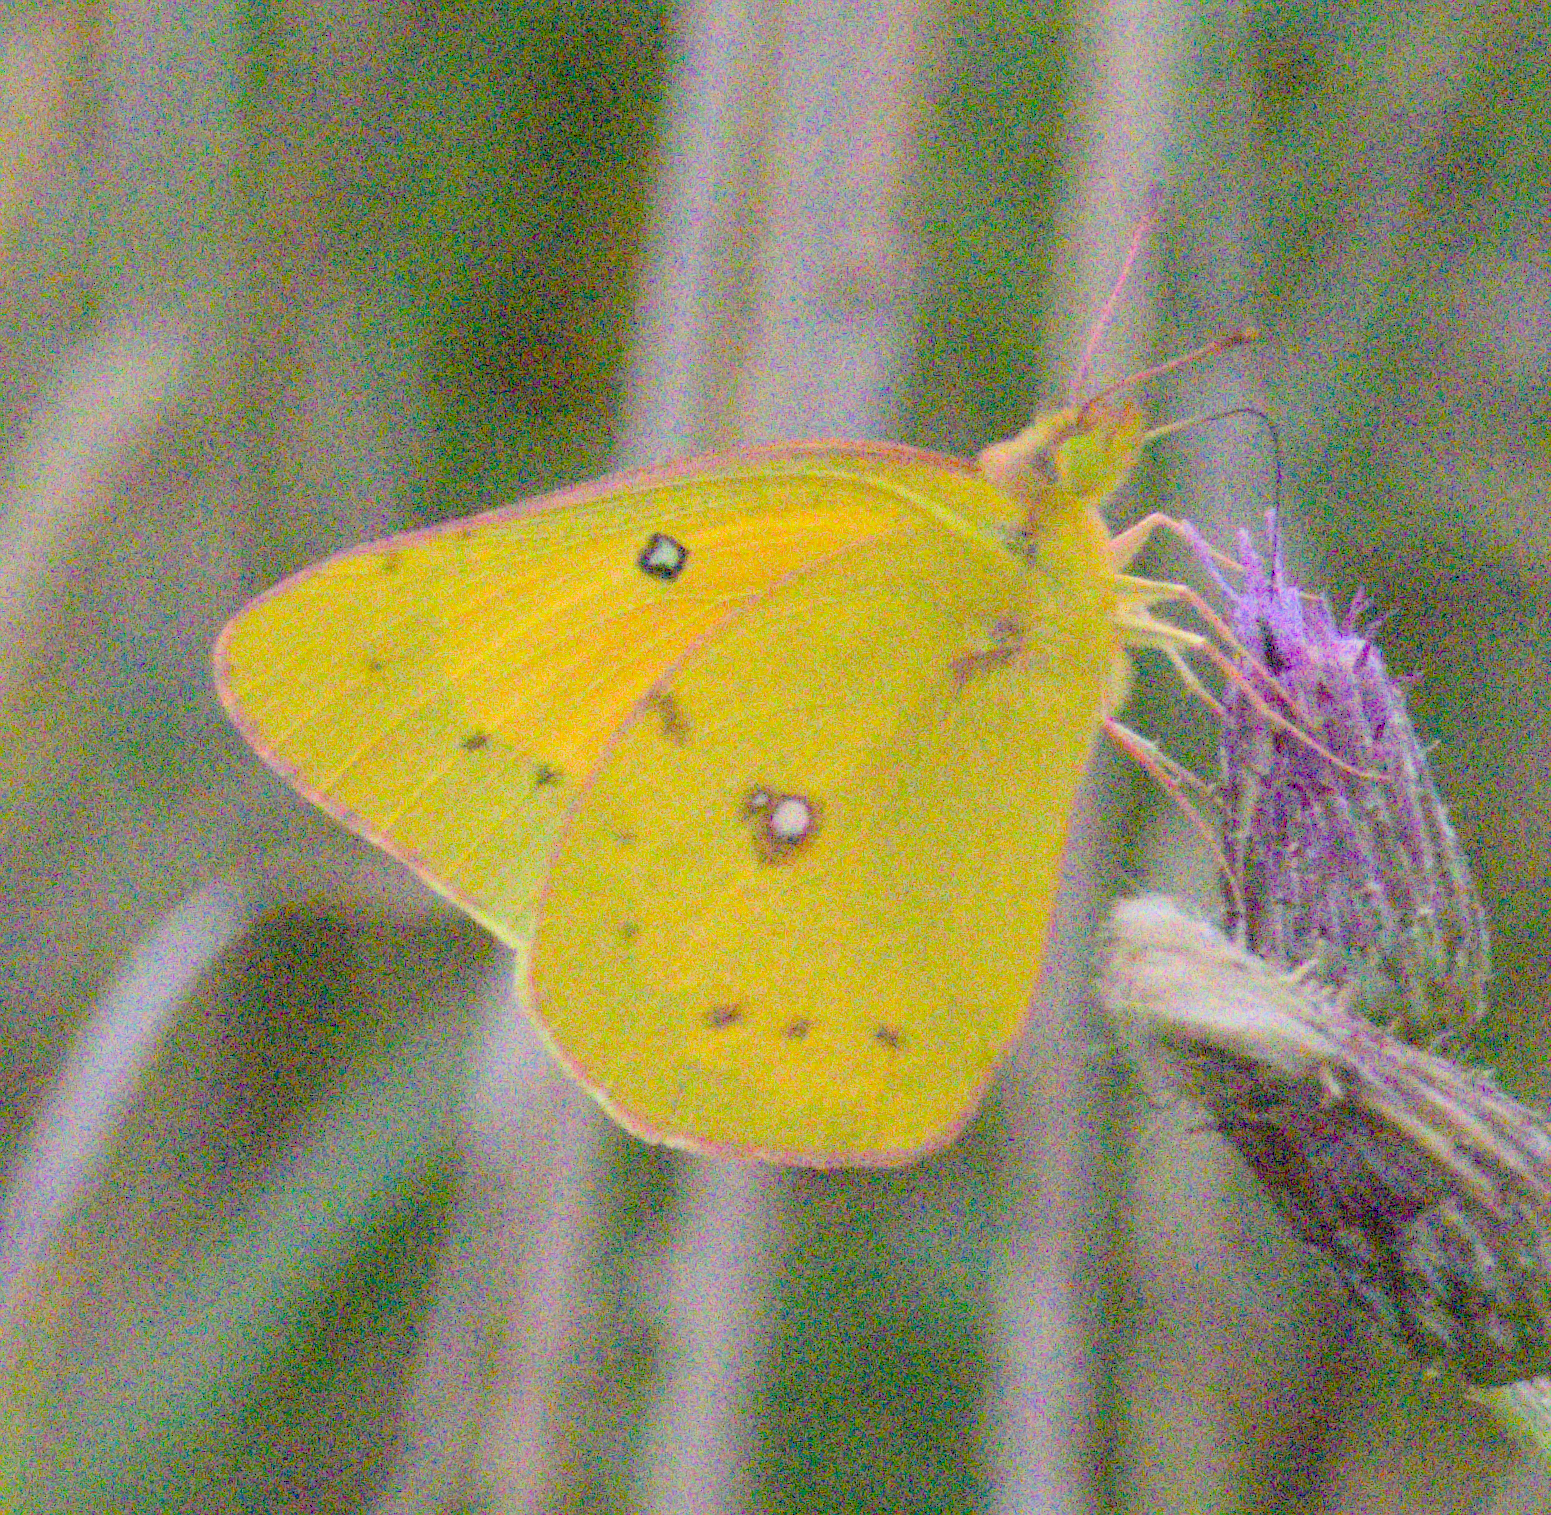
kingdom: Animalia
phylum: Arthropoda
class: Insecta
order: Lepidoptera
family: Pieridae
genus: Colias
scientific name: Colias eurytheme
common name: Alfalfa butterfly
